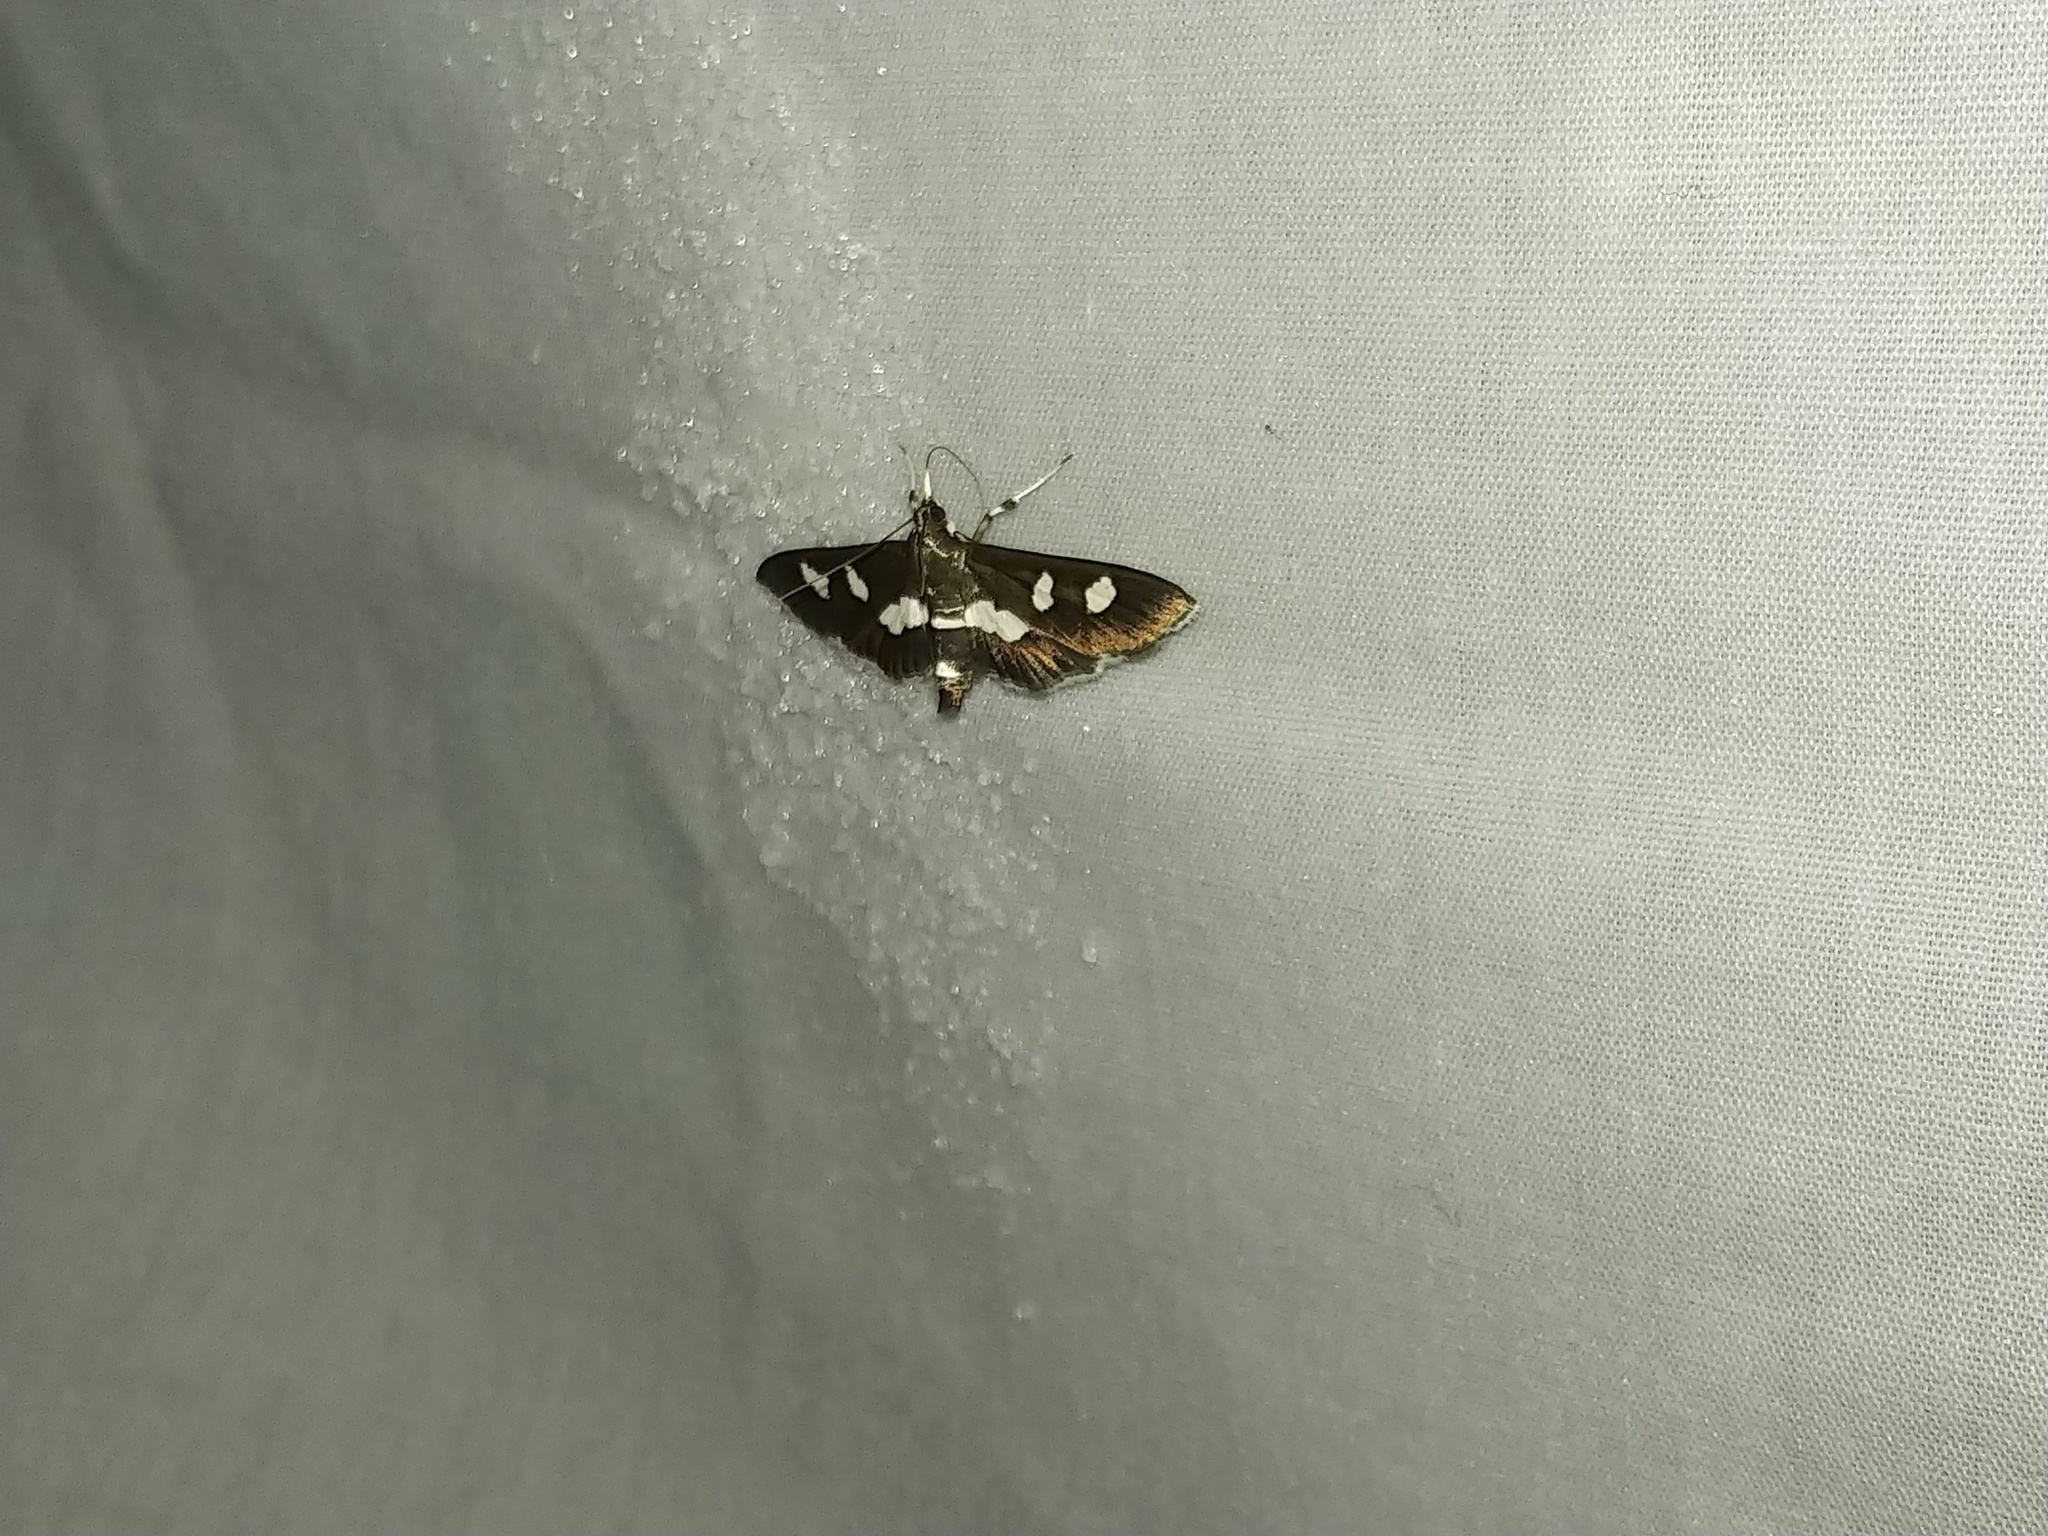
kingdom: Animalia
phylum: Arthropoda
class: Insecta
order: Lepidoptera
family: Crambidae
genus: Desmia
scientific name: Desmia
